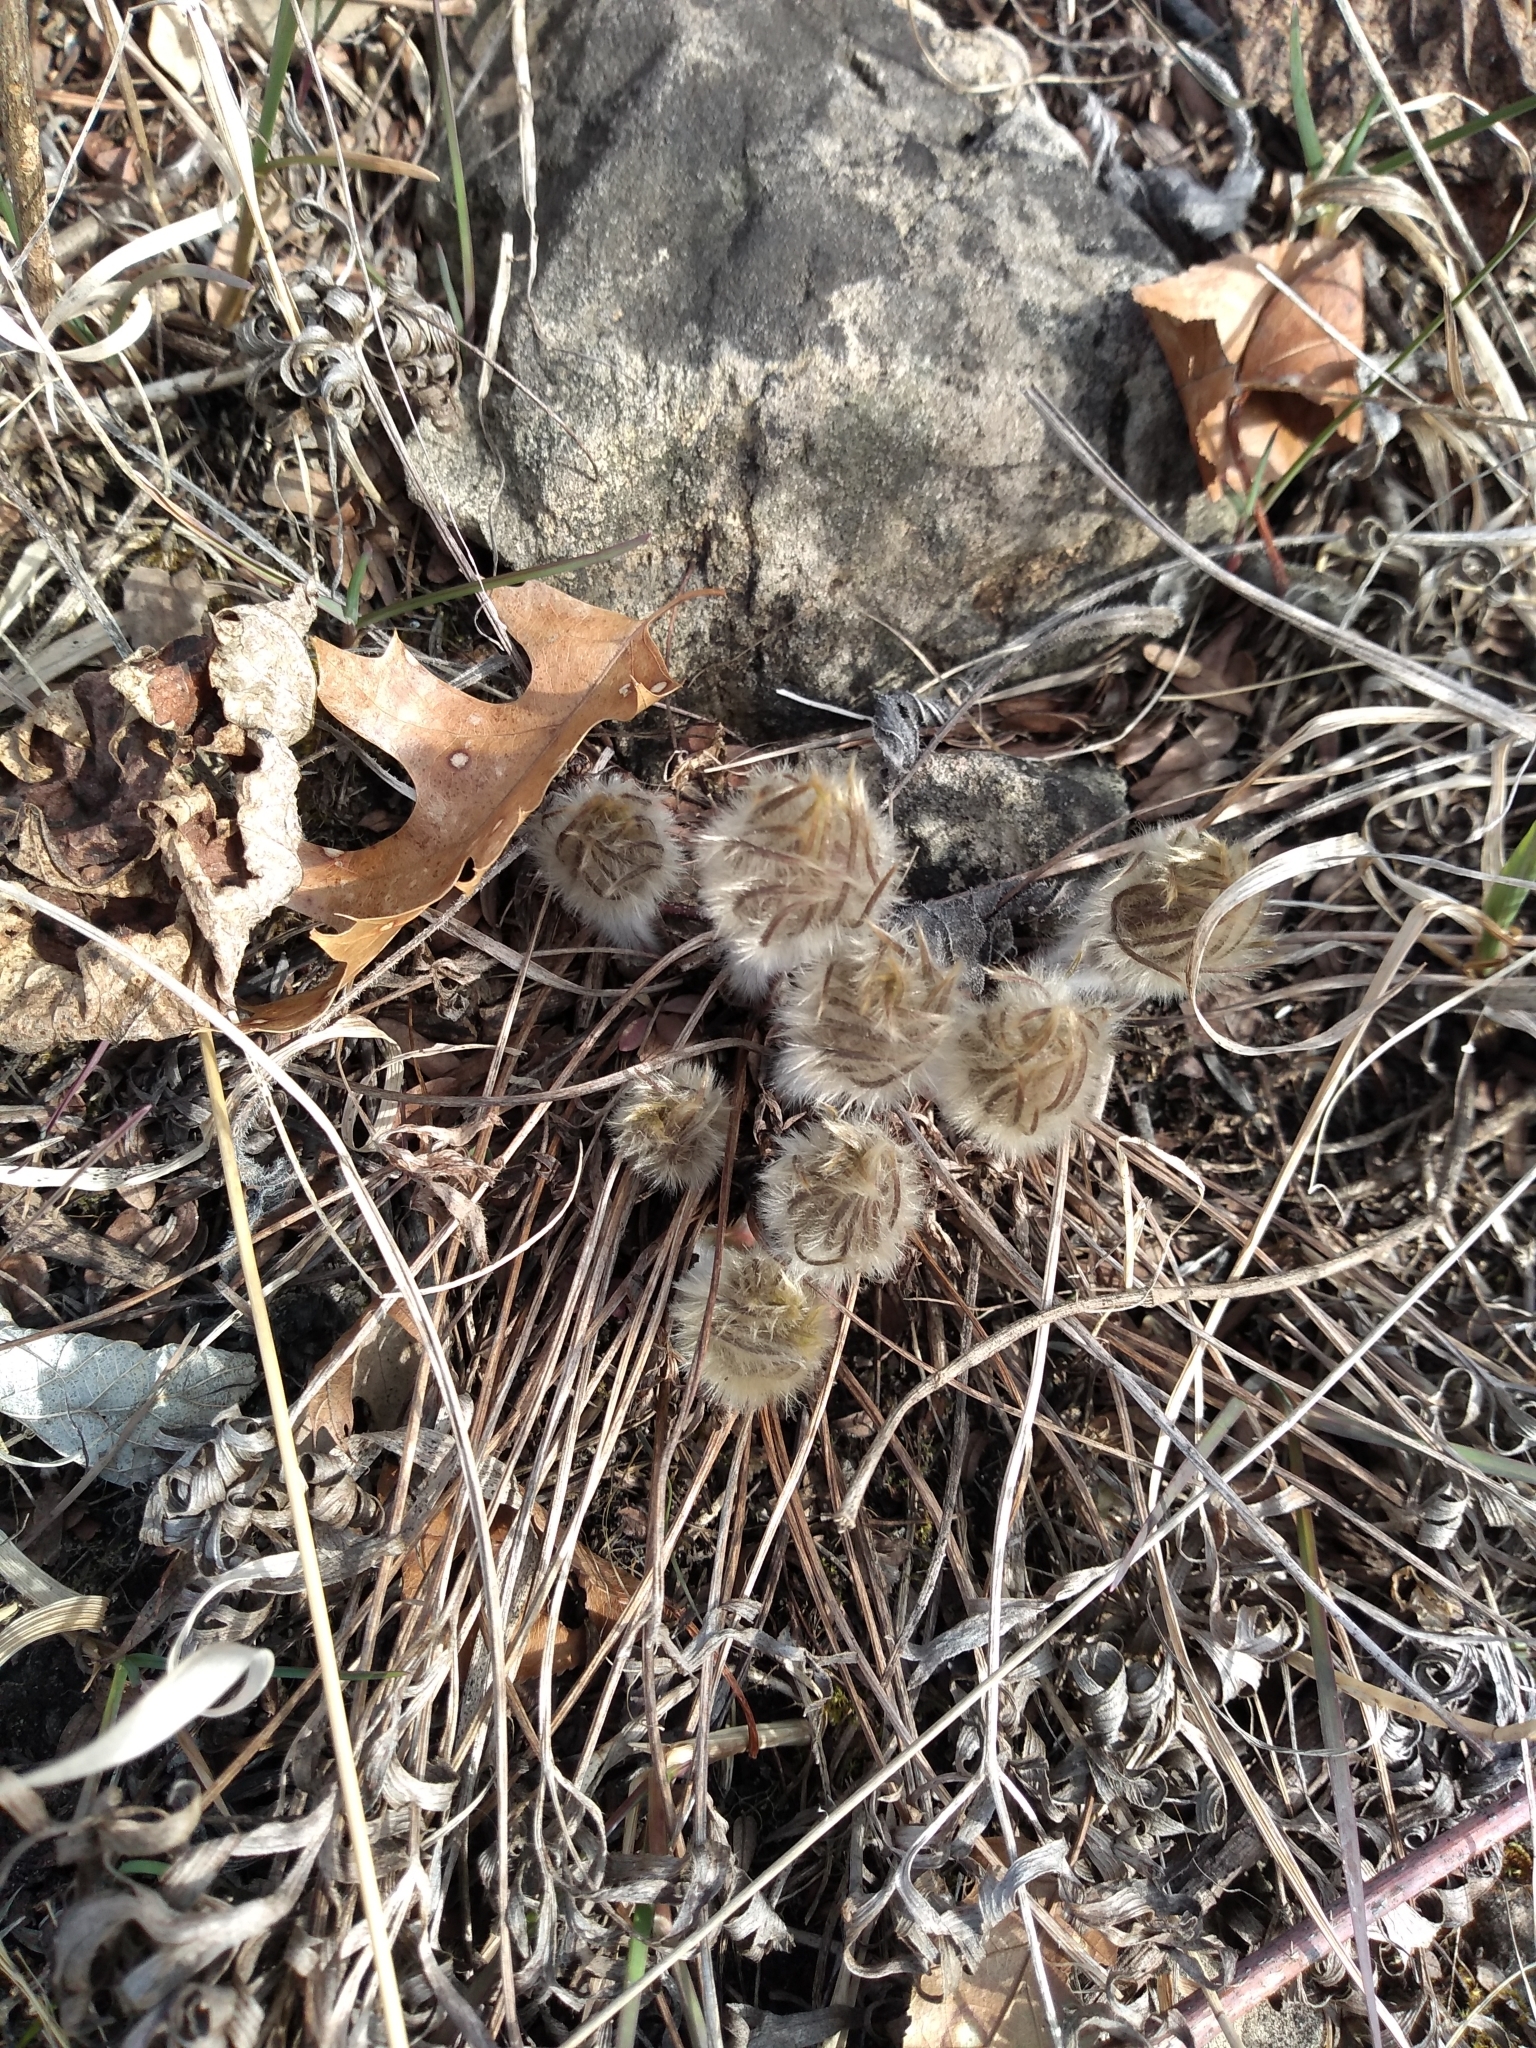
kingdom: Plantae
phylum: Tracheophyta
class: Magnoliopsida
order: Ranunculales
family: Ranunculaceae
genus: Pulsatilla
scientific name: Pulsatilla nuttalliana
